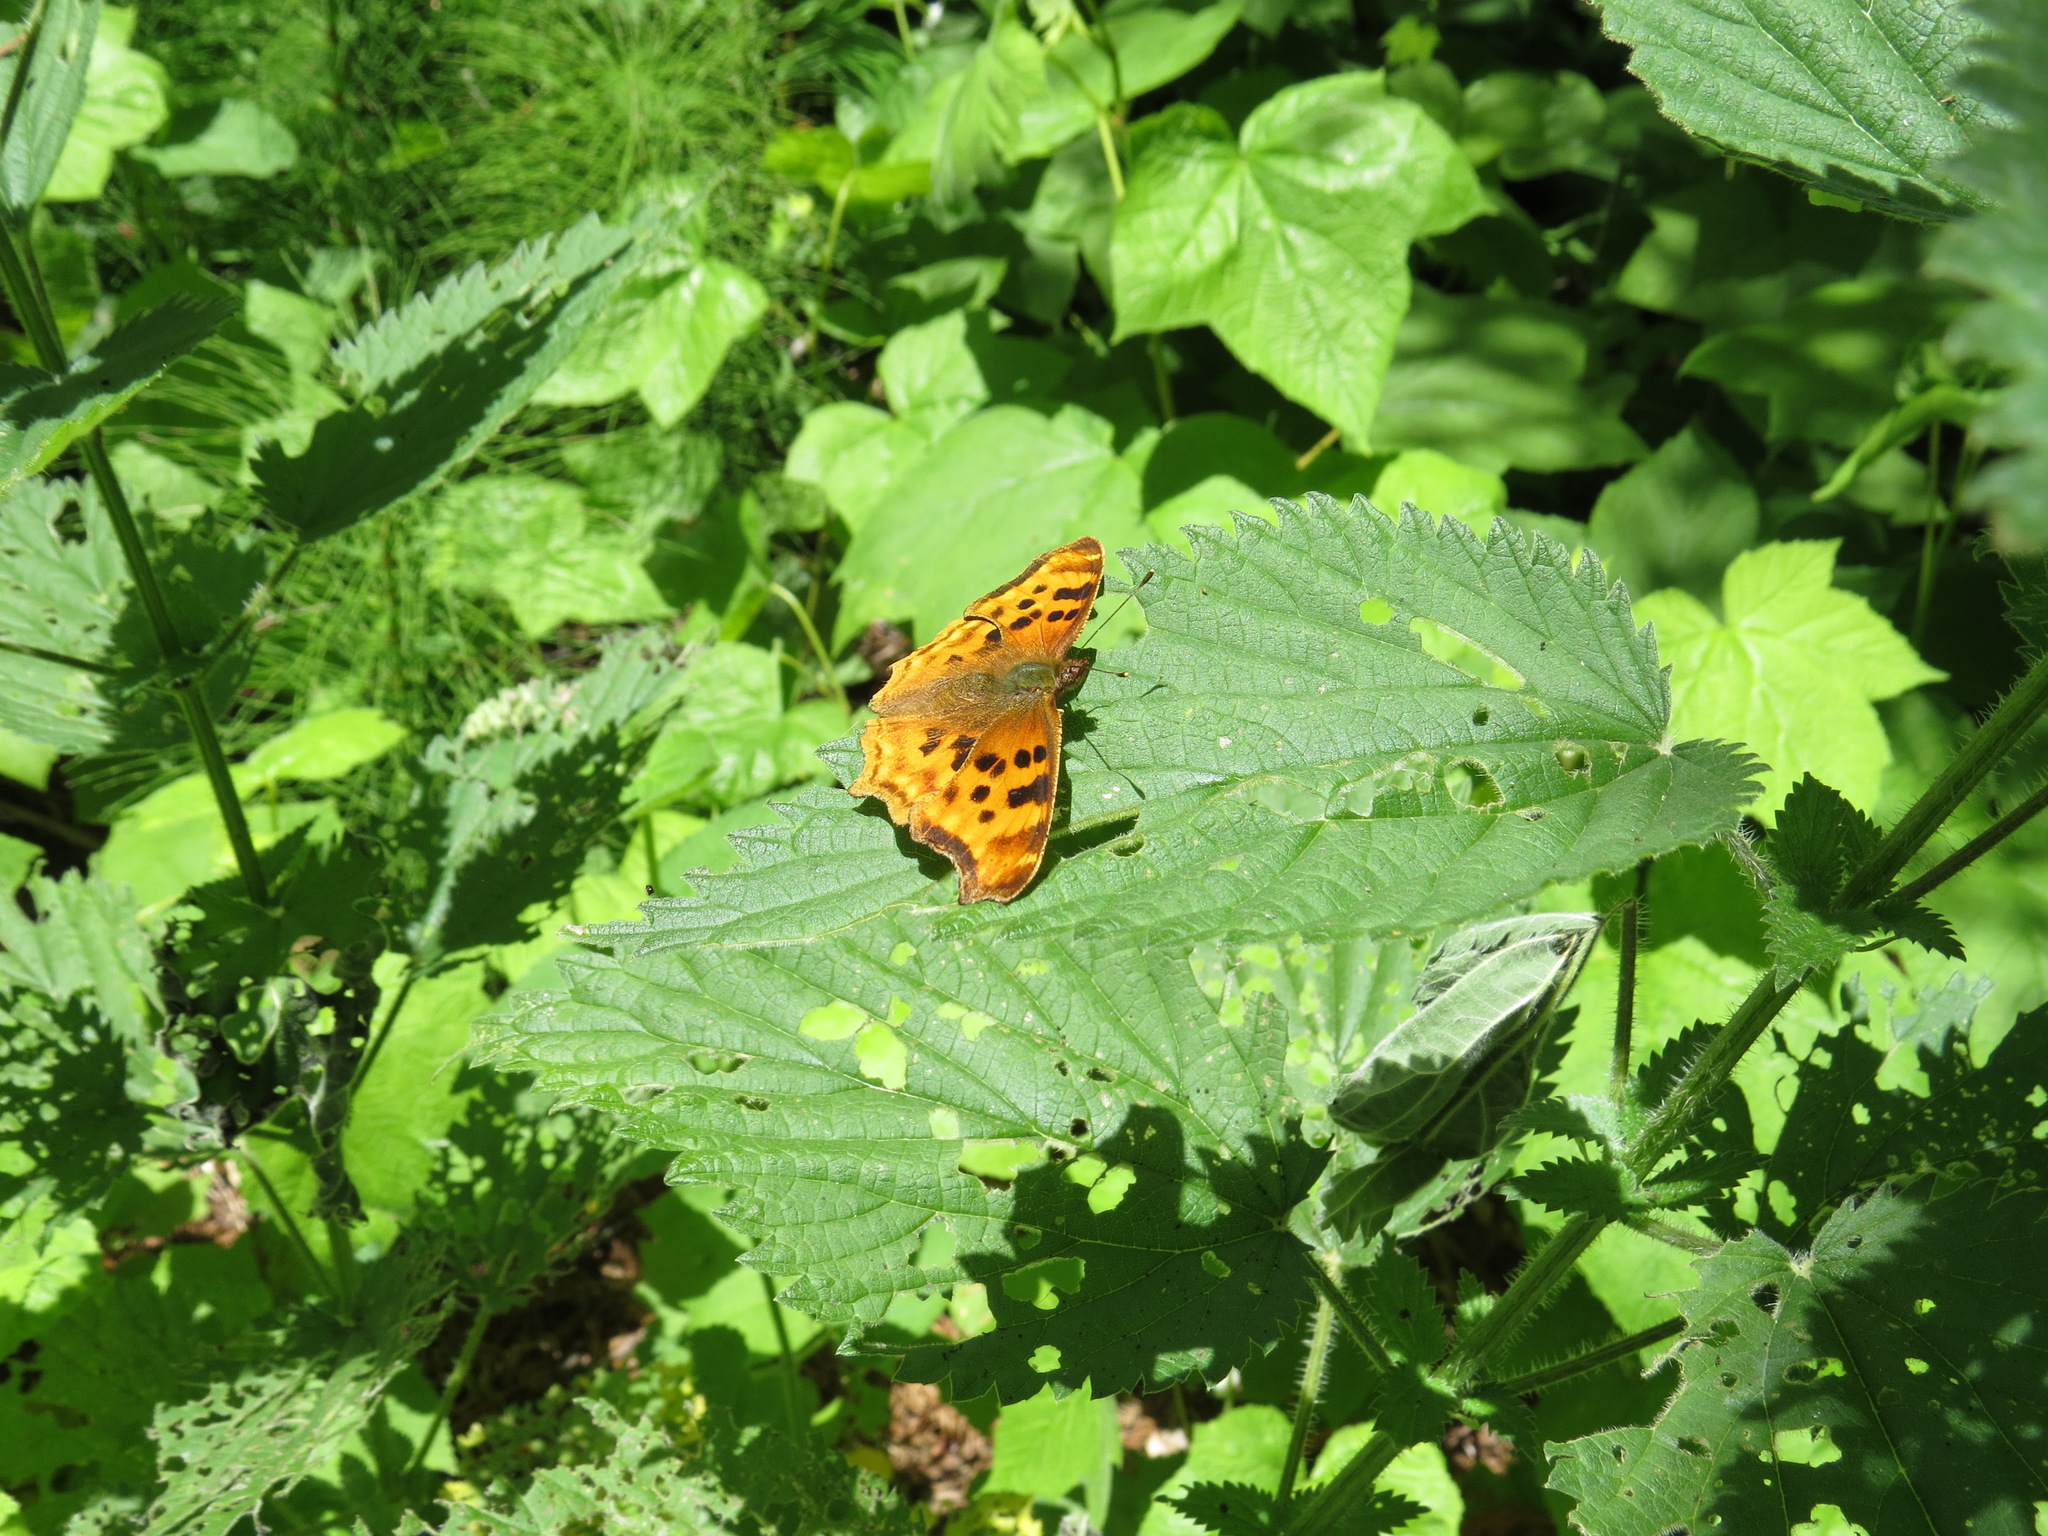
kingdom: Animalia
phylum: Arthropoda
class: Insecta
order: Lepidoptera
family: Nymphalidae
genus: Polygonia
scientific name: Polygonia satyrus
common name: Satyr angle wing
